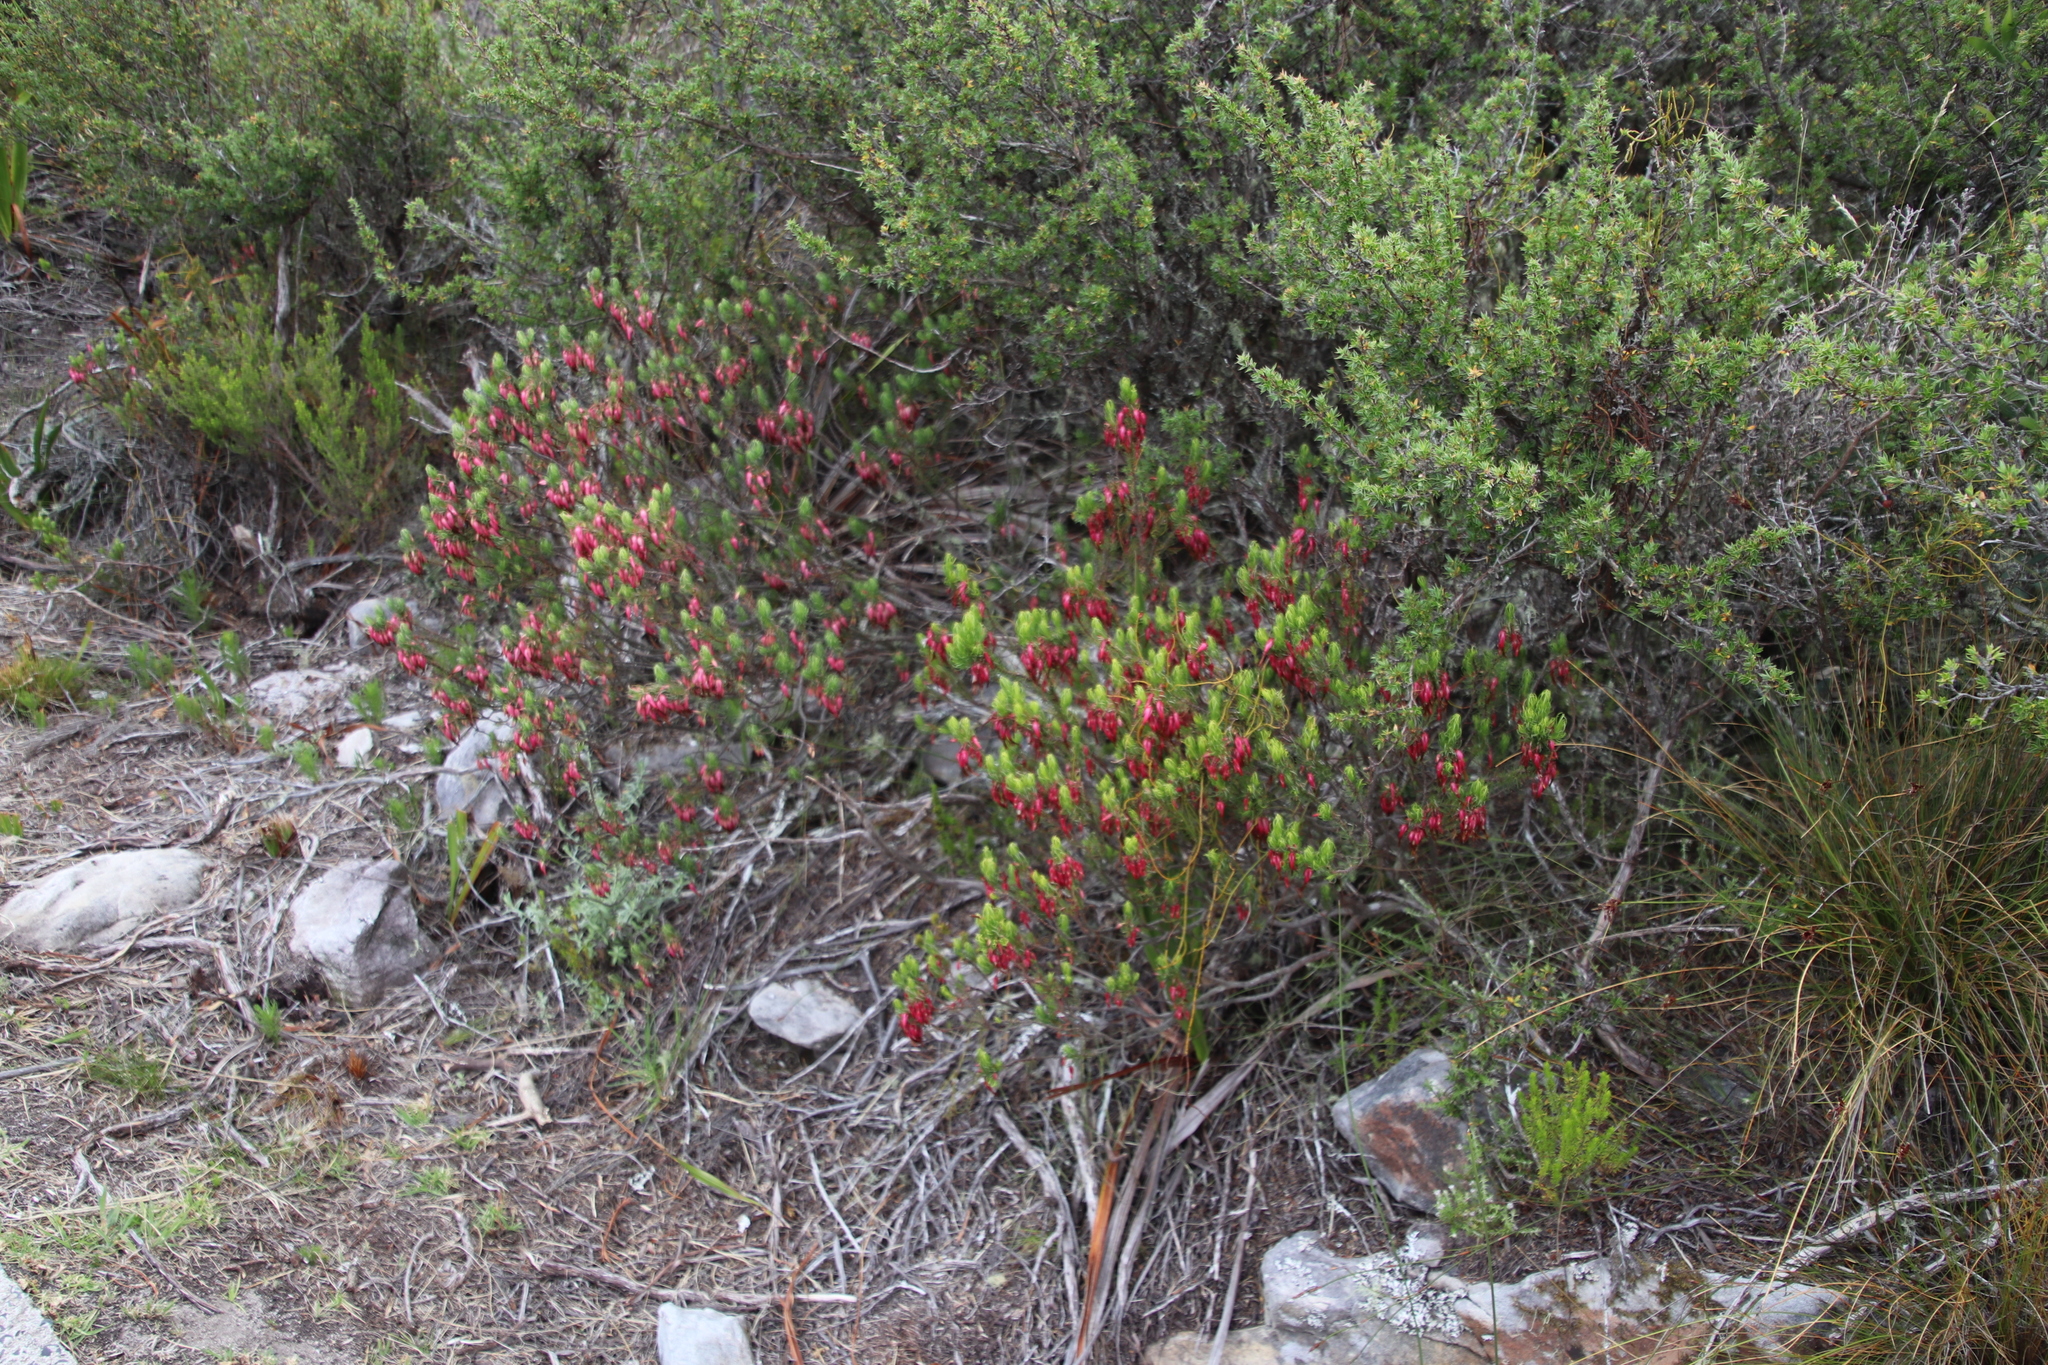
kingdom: Plantae
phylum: Tracheophyta
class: Magnoliopsida
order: Ericales
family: Ericaceae
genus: Erica
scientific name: Erica plukenetii
